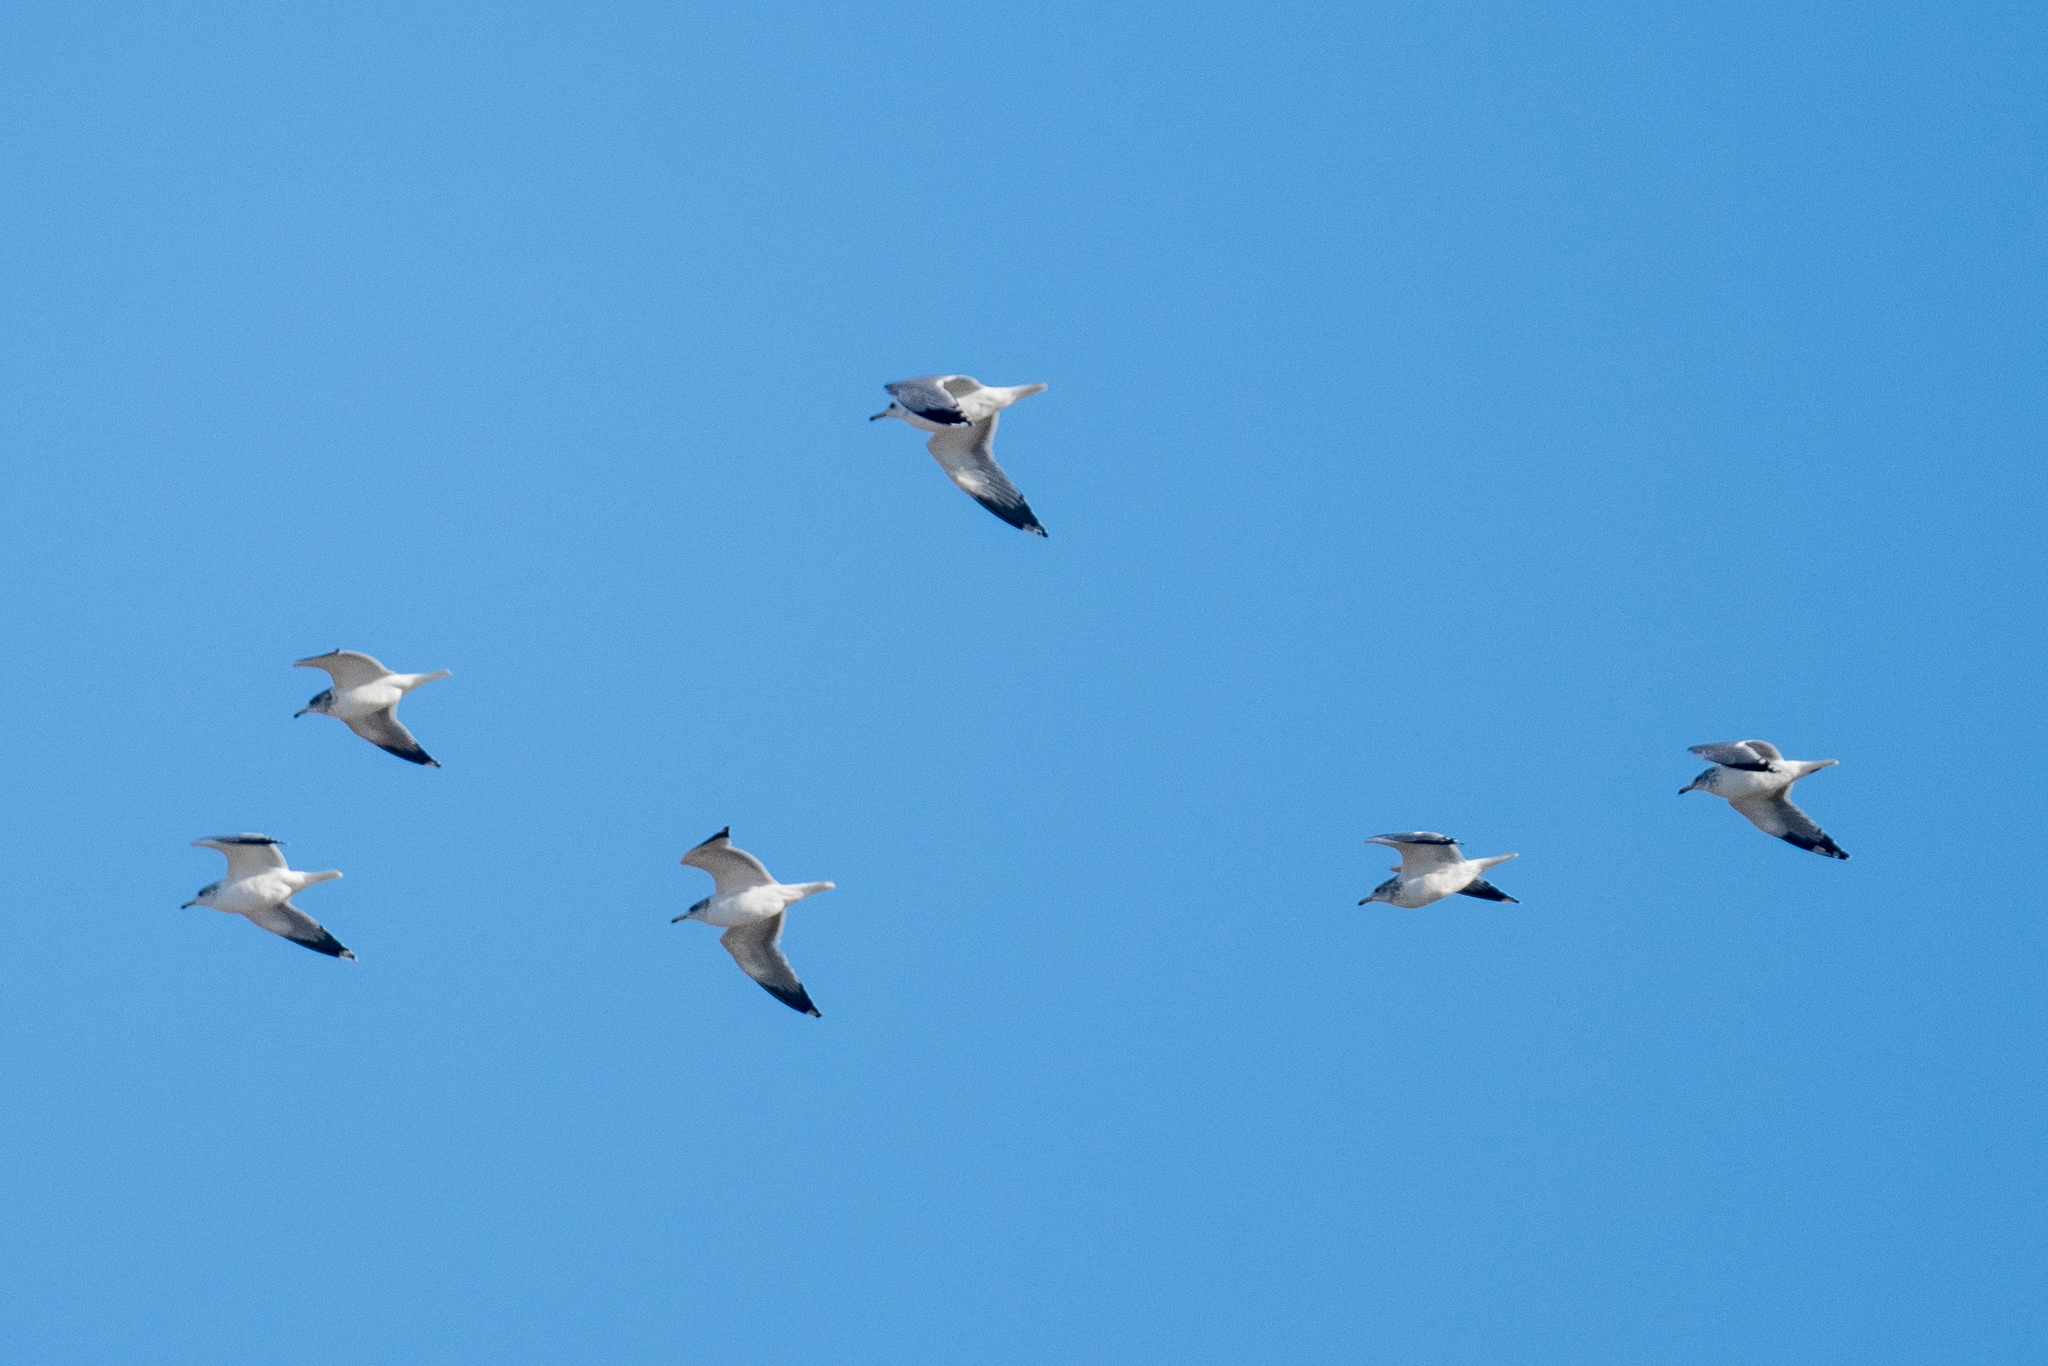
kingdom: Animalia
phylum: Chordata
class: Aves
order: Charadriiformes
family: Laridae
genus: Larus
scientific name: Larus californicus
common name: California gull
